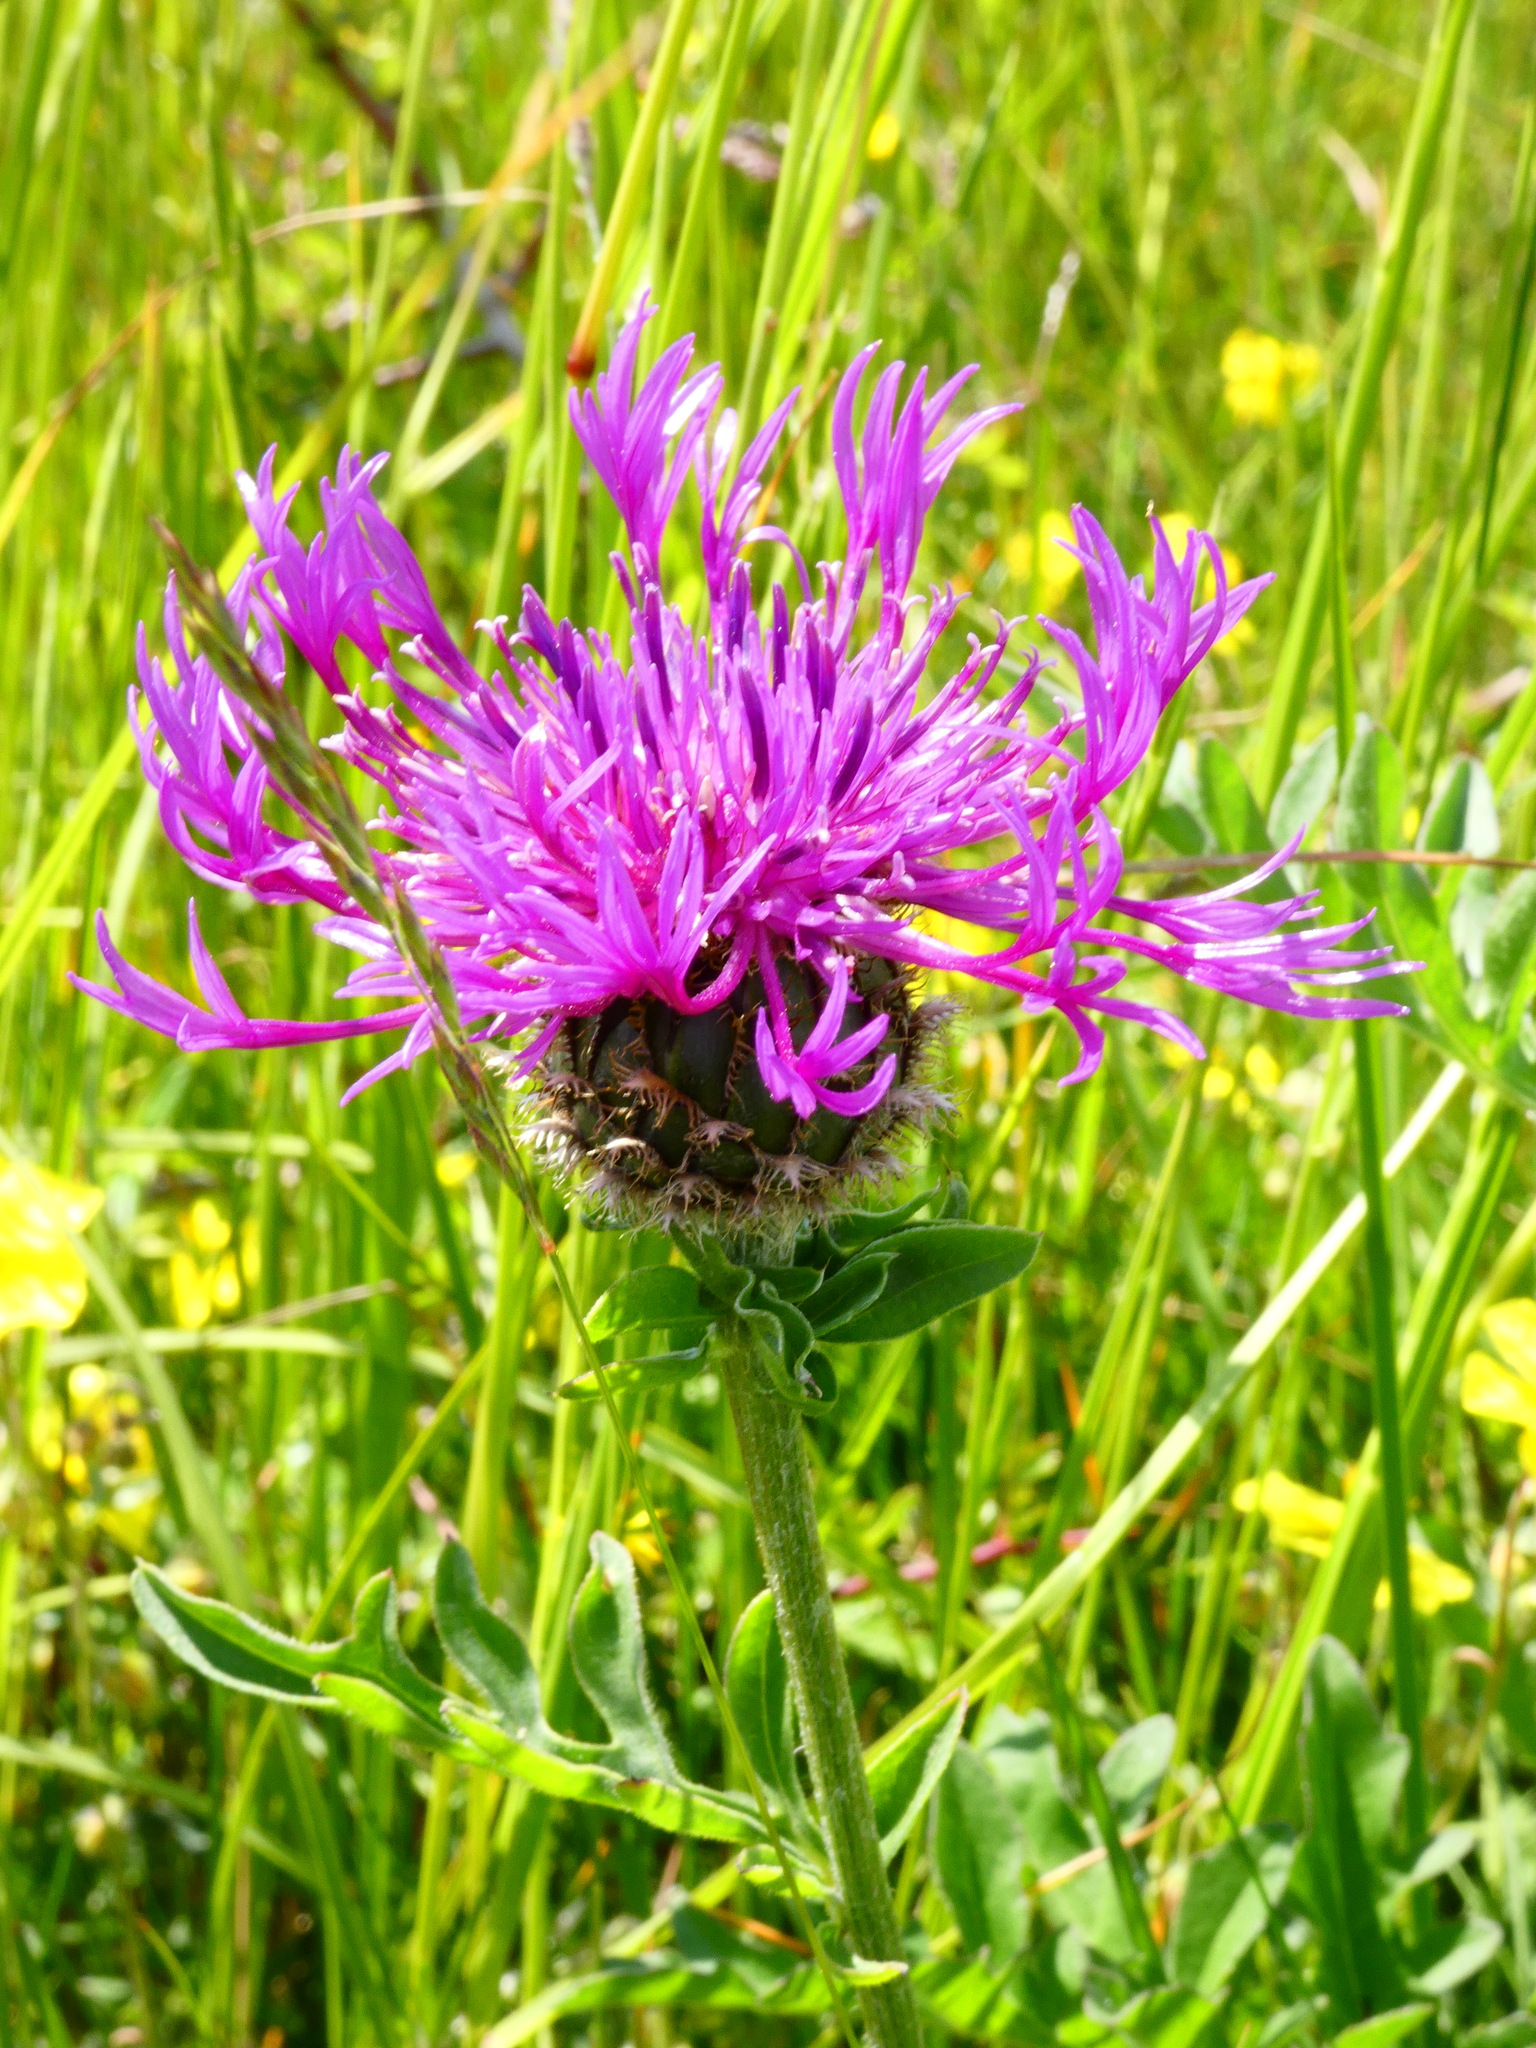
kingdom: Plantae
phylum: Tracheophyta
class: Magnoliopsida
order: Asterales
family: Asteraceae
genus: Centaurea
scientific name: Centaurea scabiosa
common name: Greater knapweed
